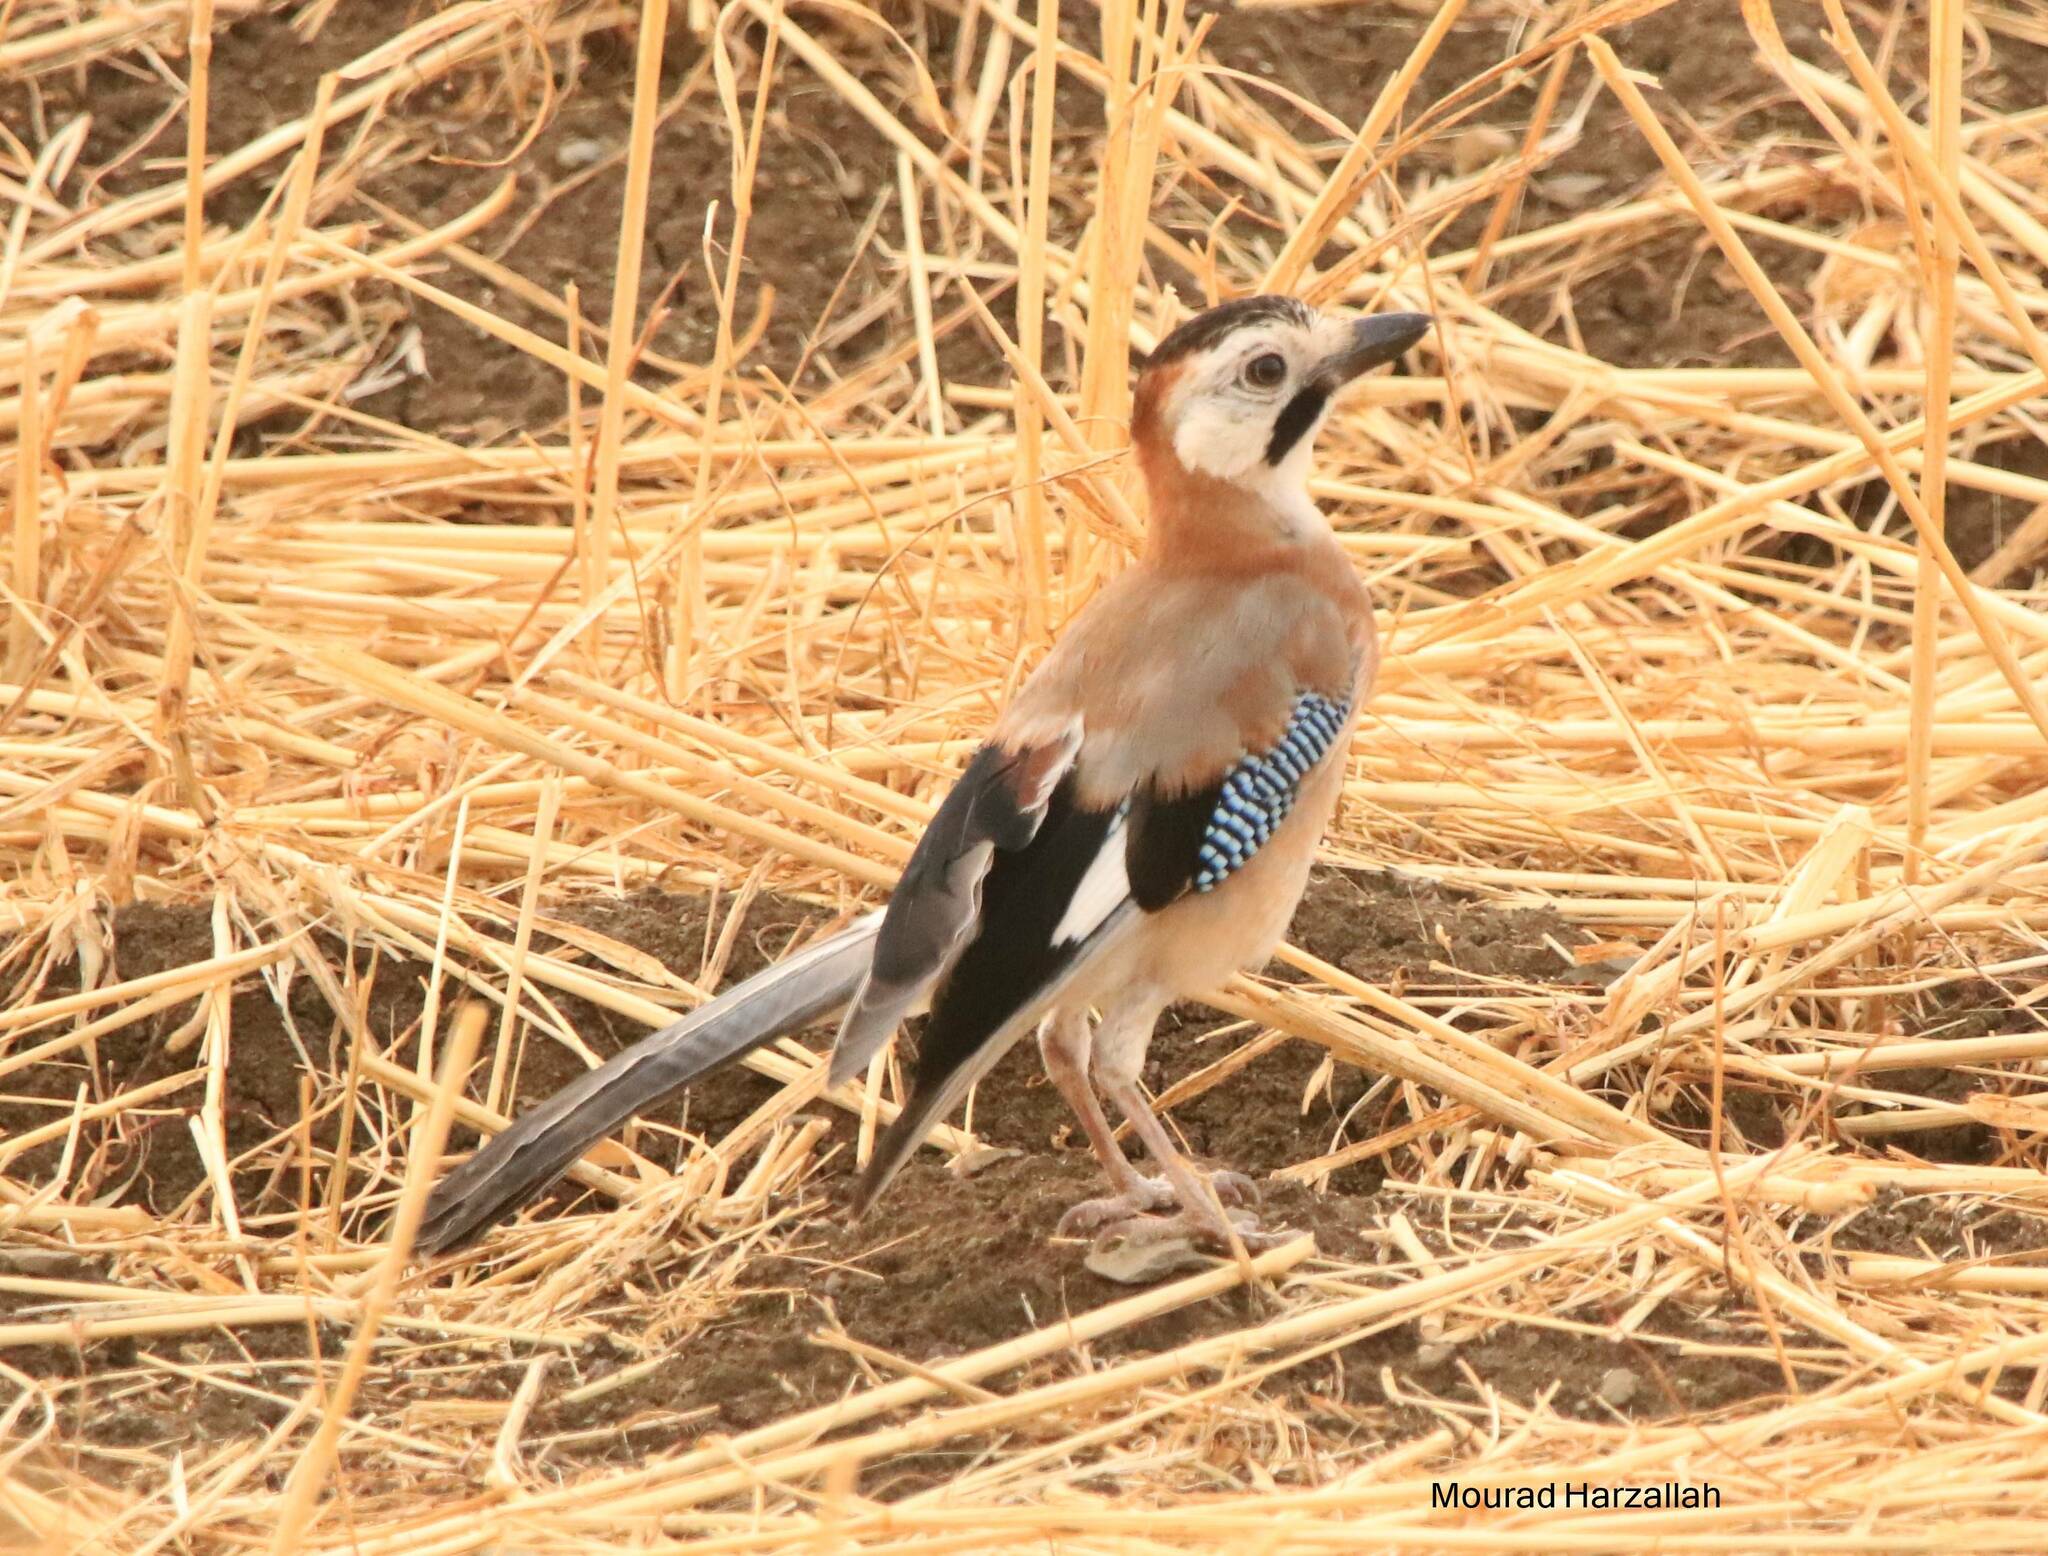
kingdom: Animalia
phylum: Chordata
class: Aves
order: Passeriformes
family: Corvidae
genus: Garrulus
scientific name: Garrulus glandarius
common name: Eurasian jay
